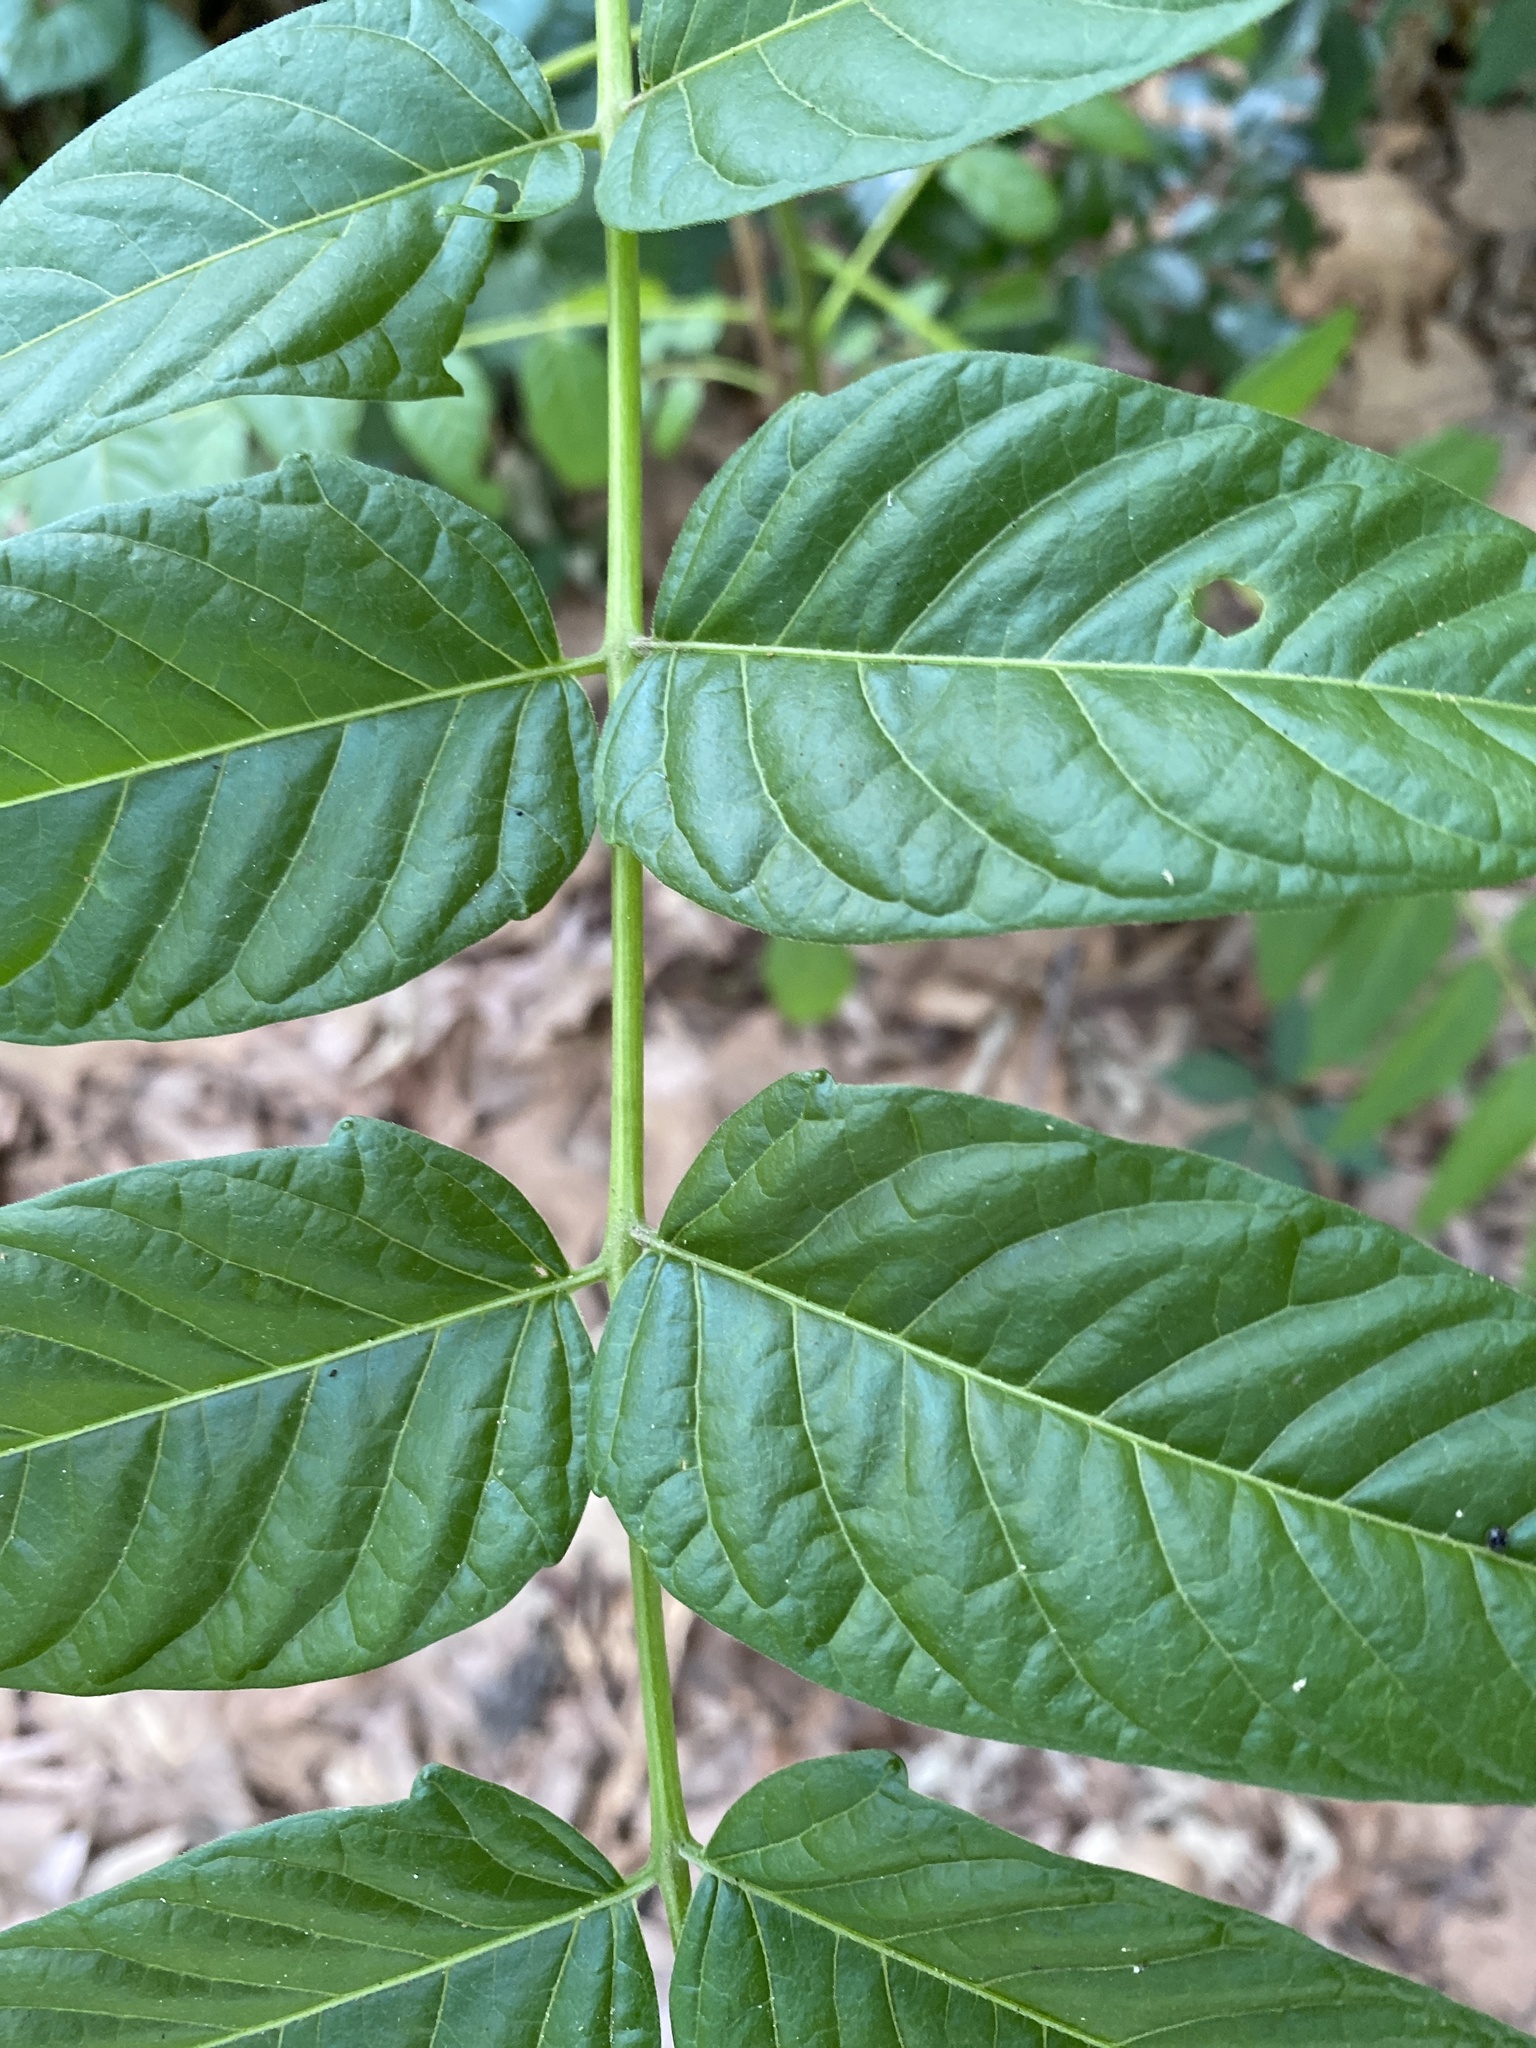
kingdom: Plantae
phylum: Tracheophyta
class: Magnoliopsida
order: Sapindales
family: Simaroubaceae
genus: Ailanthus
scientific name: Ailanthus altissima
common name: Tree-of-heaven
